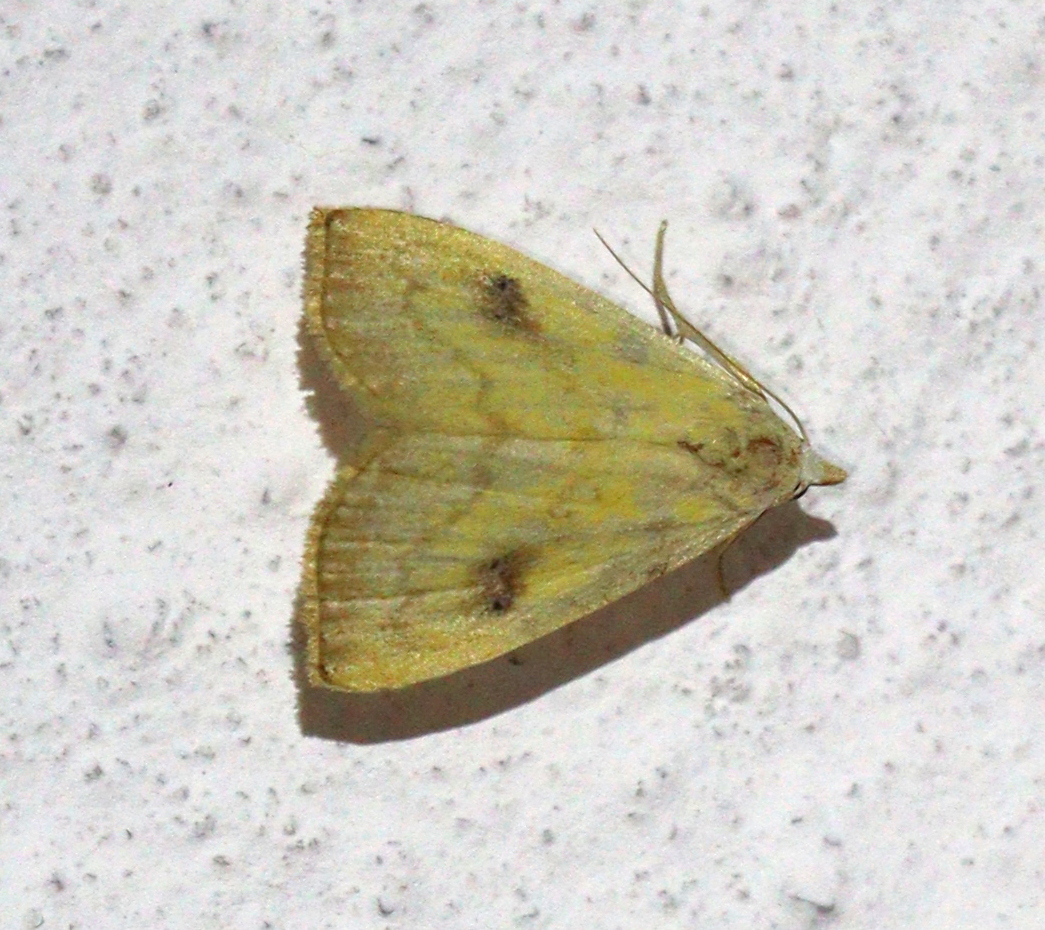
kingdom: Animalia
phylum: Arthropoda
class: Insecta
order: Lepidoptera
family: Erebidae
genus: Rivula
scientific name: Rivula sericealis
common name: Straw dot
